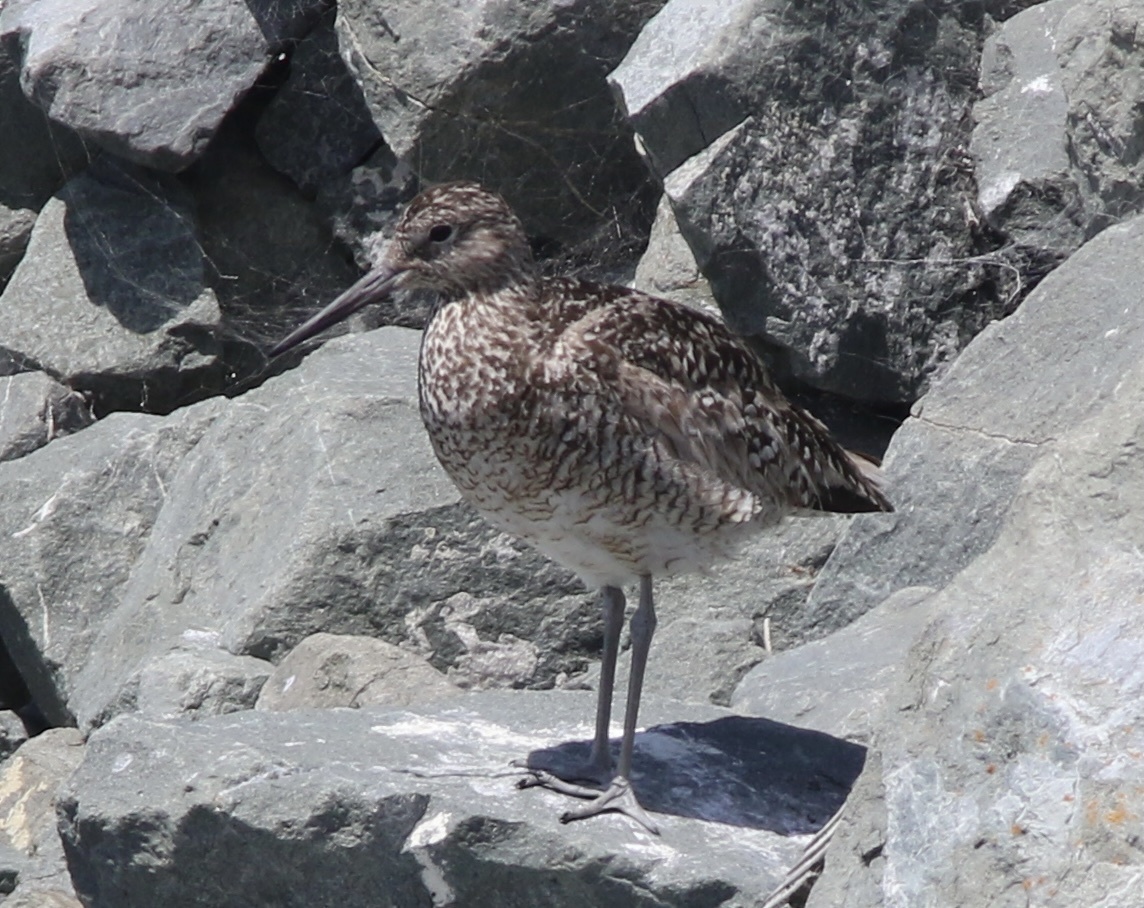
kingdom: Animalia
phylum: Chordata
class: Aves
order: Charadriiformes
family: Scolopacidae
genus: Tringa
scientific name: Tringa semipalmata
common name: Willet
